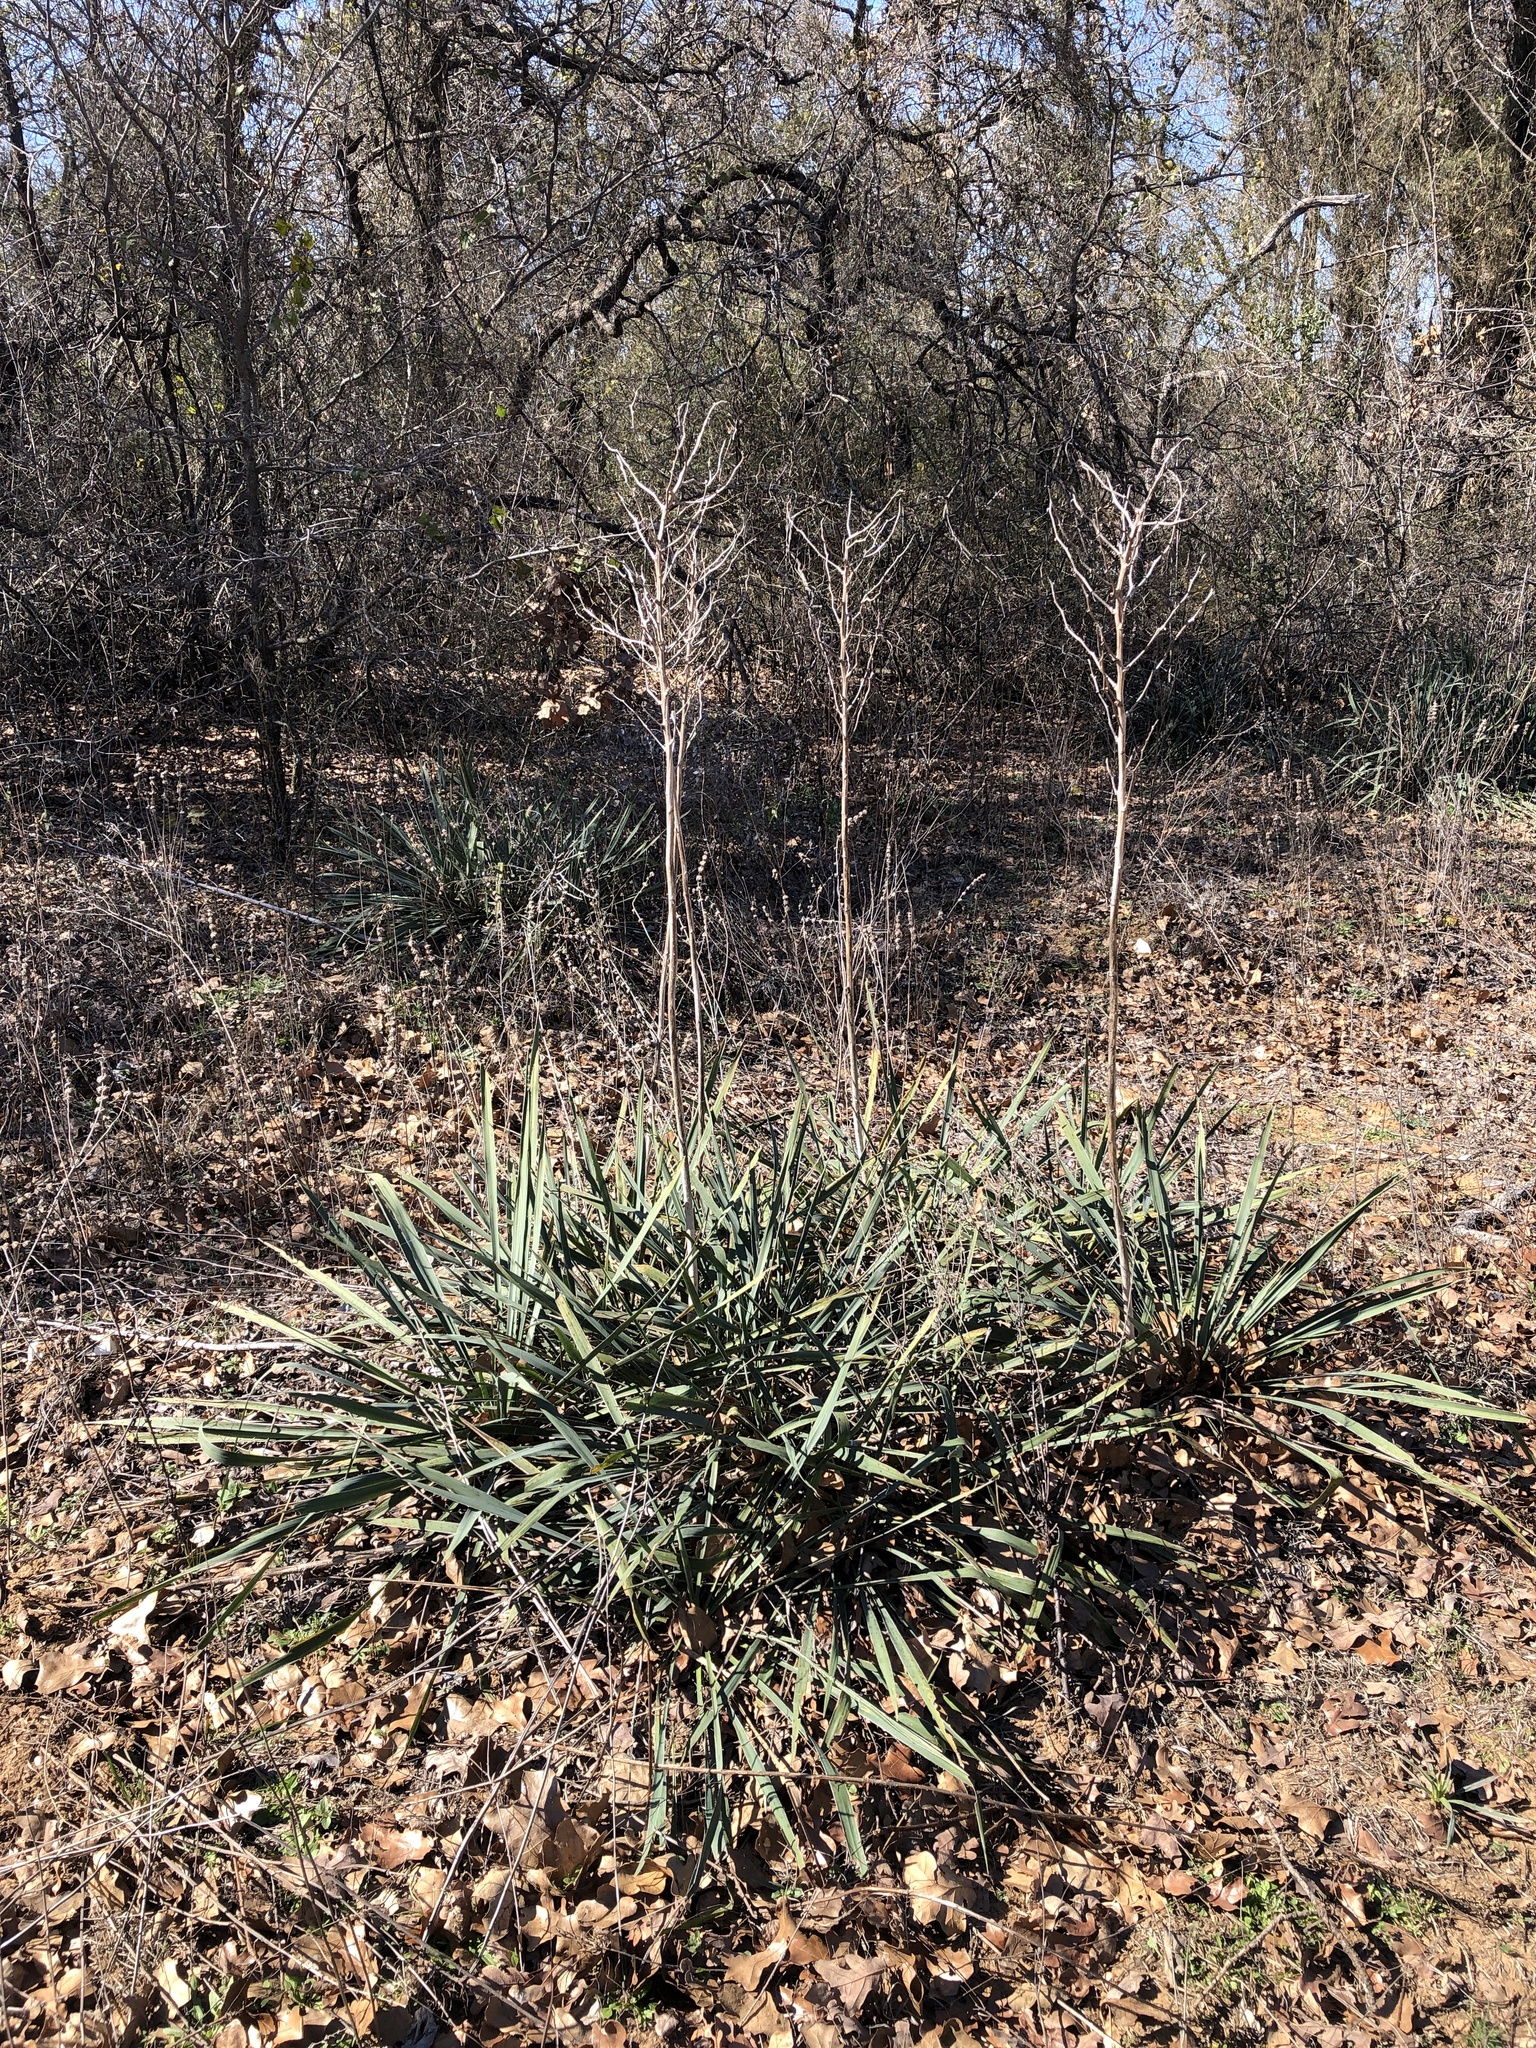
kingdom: Plantae
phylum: Tracheophyta
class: Liliopsida
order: Asparagales
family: Asparagaceae
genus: Yucca
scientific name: Yucca necopina
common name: Glen rose yucca
